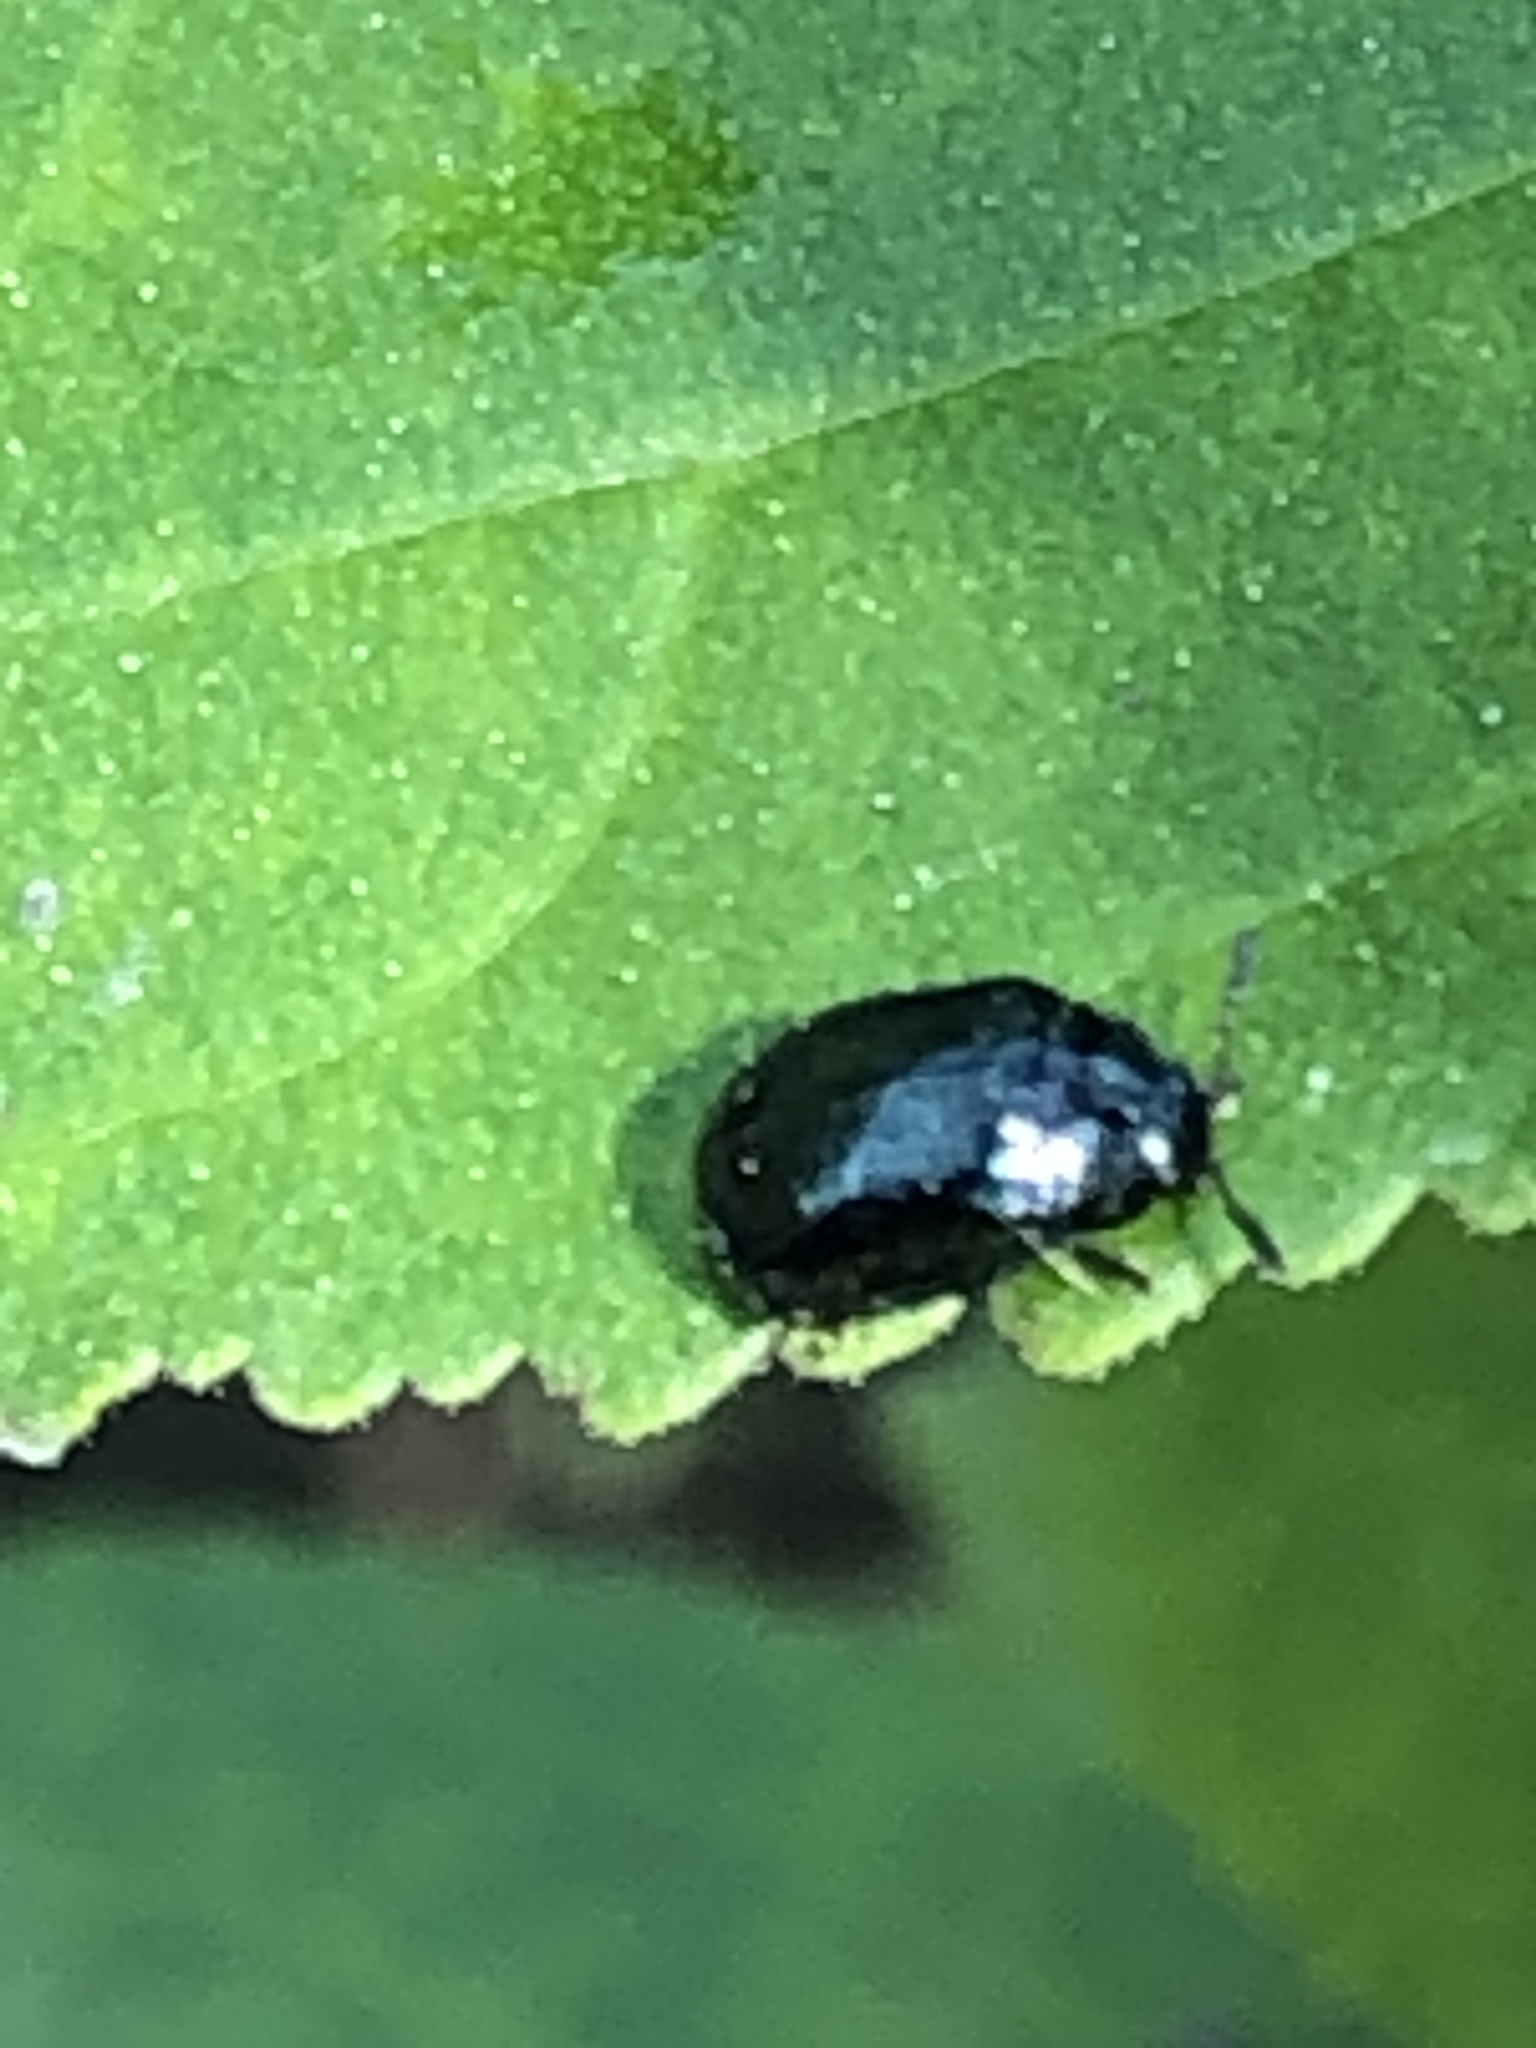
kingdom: Animalia
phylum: Arthropoda
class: Insecta
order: Coleoptera
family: Chrysomelidae
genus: Plagiodera
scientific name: Plagiodera versicolora
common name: Imported willow leaf beetle
